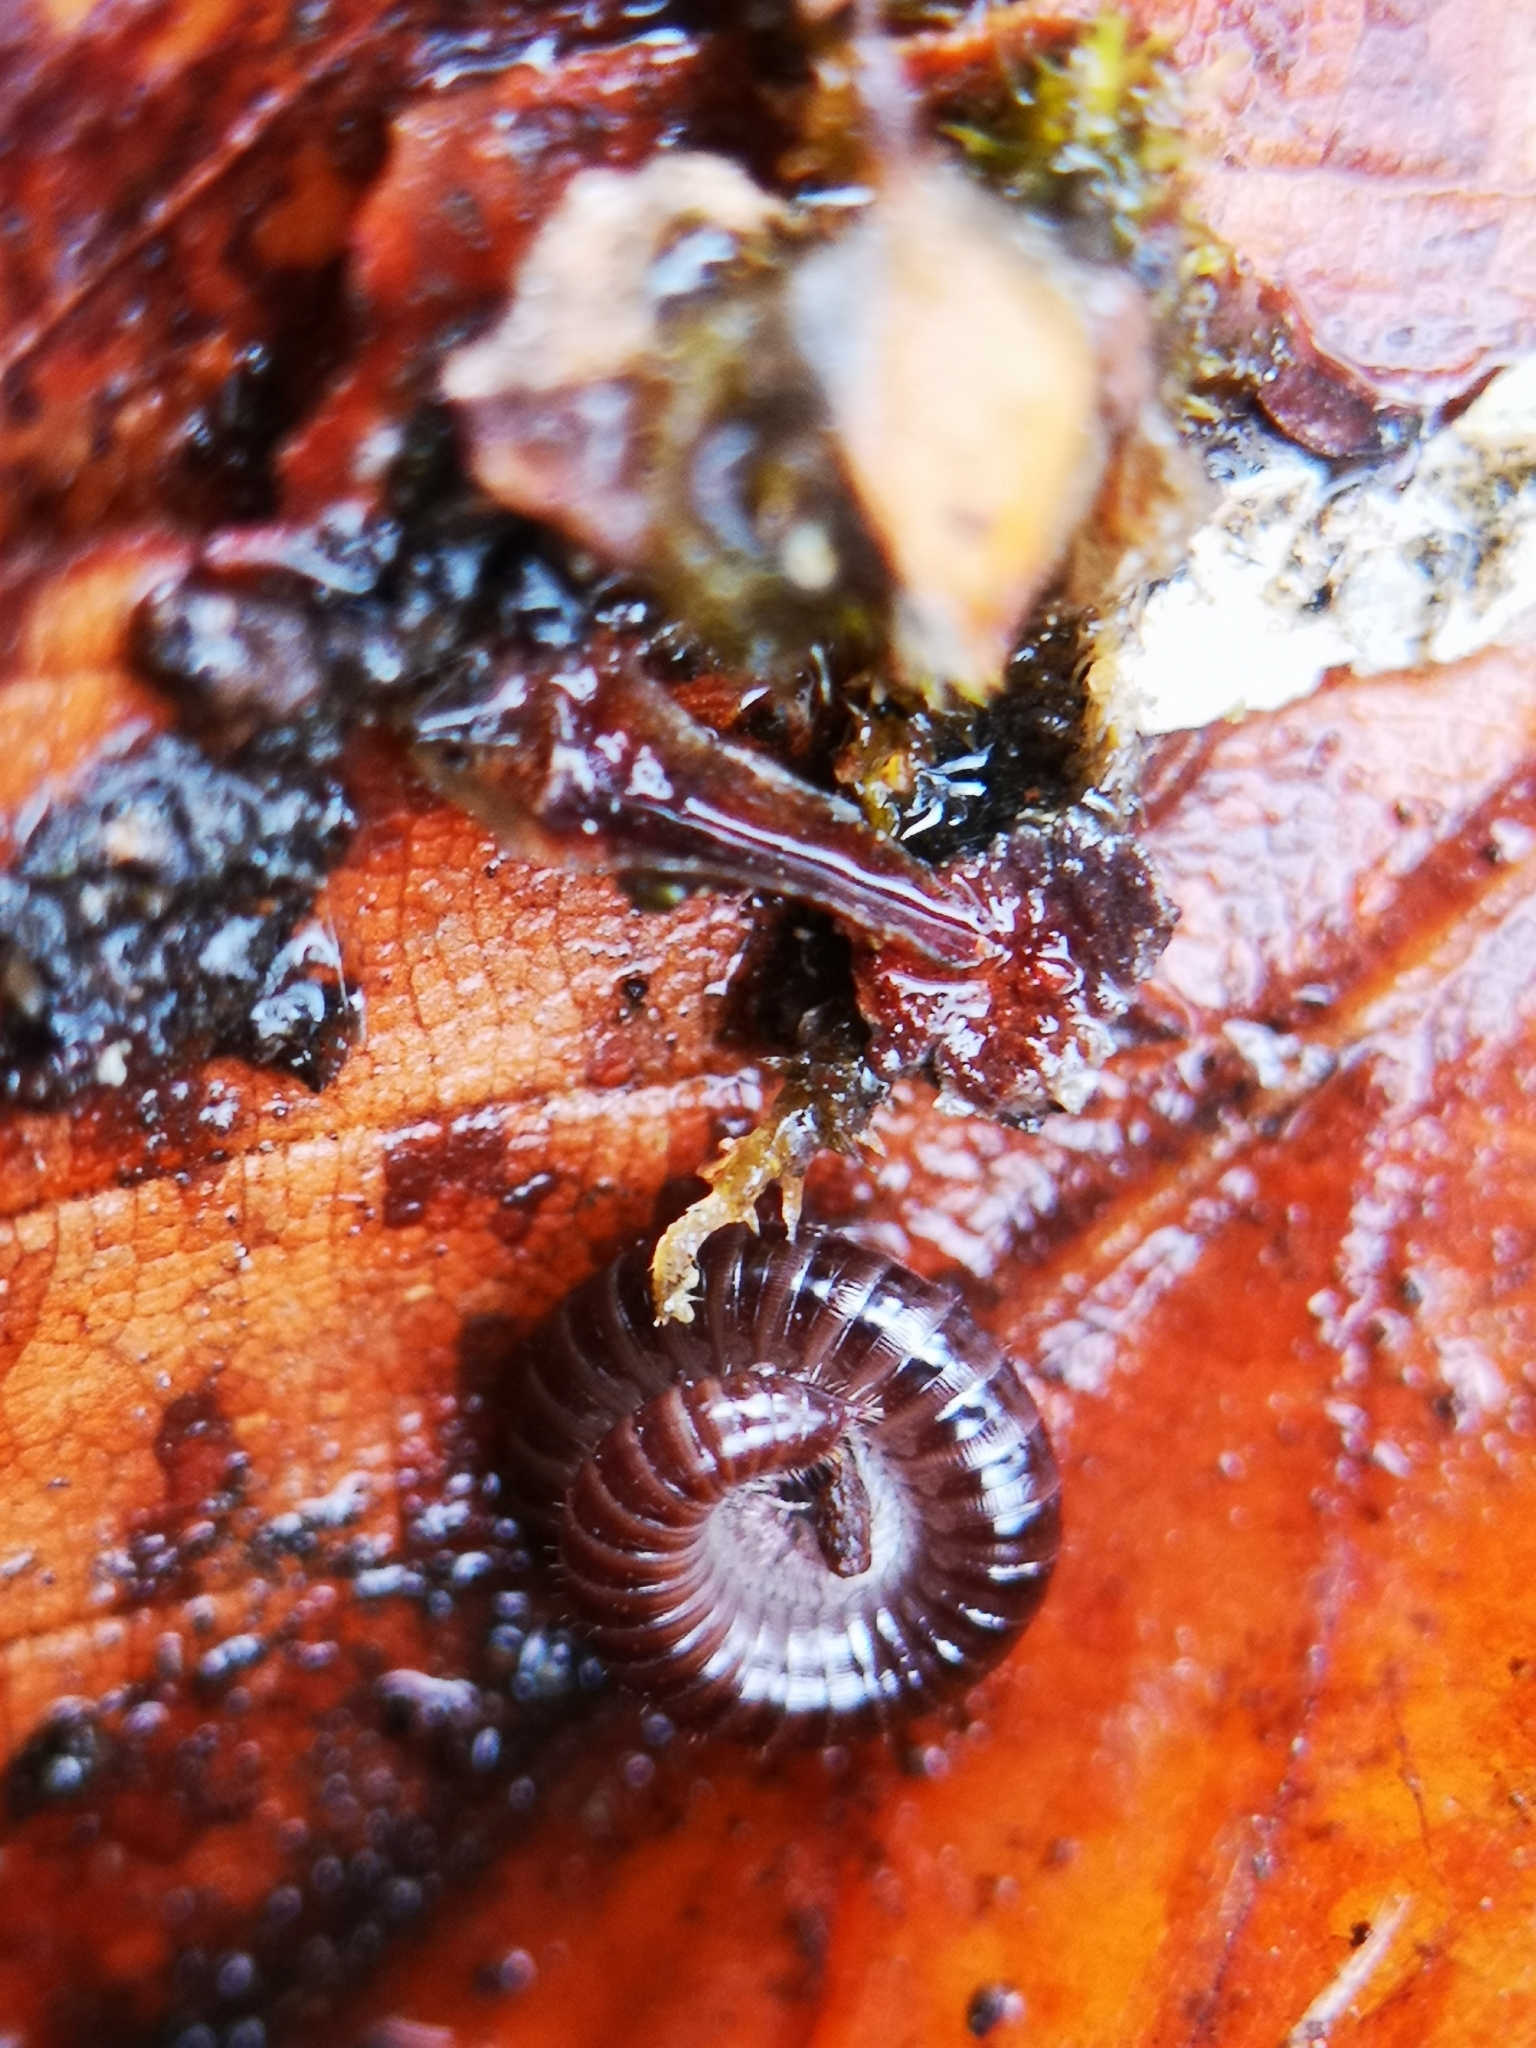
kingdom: Animalia
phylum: Arthropoda
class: Diplopoda
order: Julida
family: Julidae
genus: Ophyiulus
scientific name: Ophyiulus pilosus
